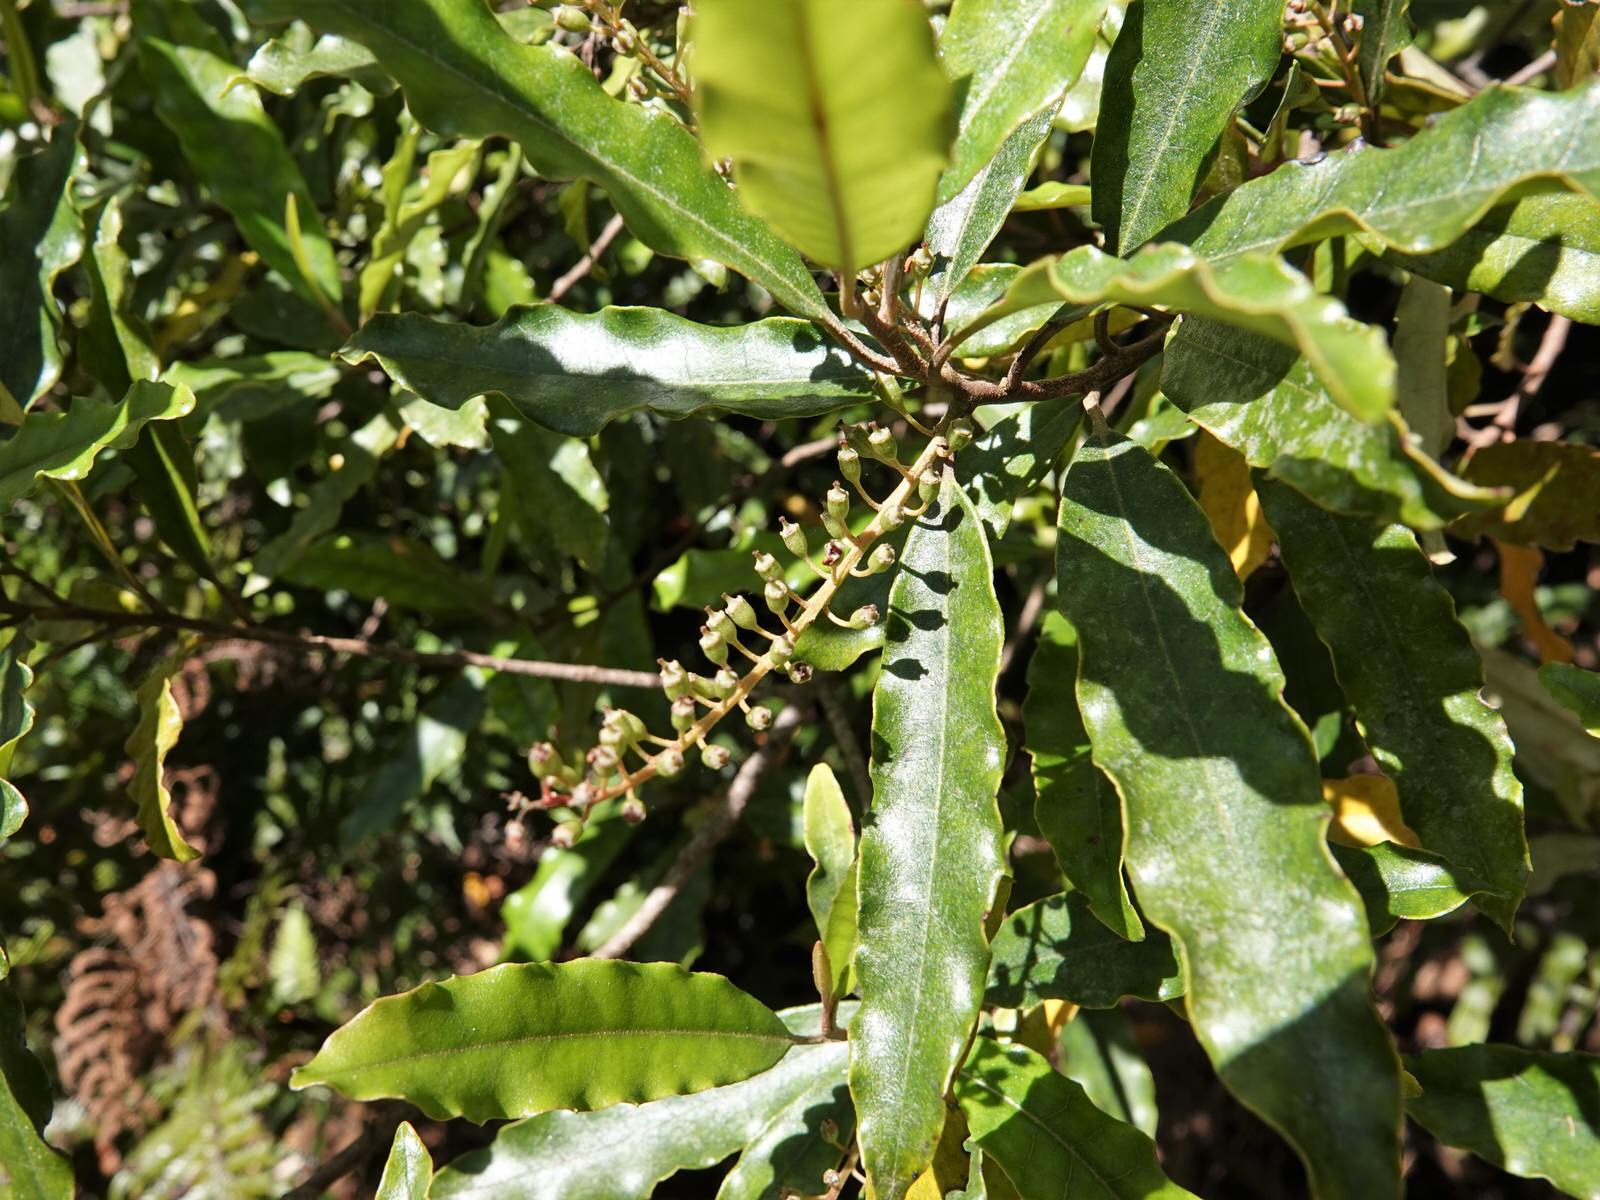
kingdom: Plantae
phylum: Tracheophyta
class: Magnoliopsida
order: Paracryphiales
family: Paracryphiaceae
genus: Quintinia
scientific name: Quintinia serrata
